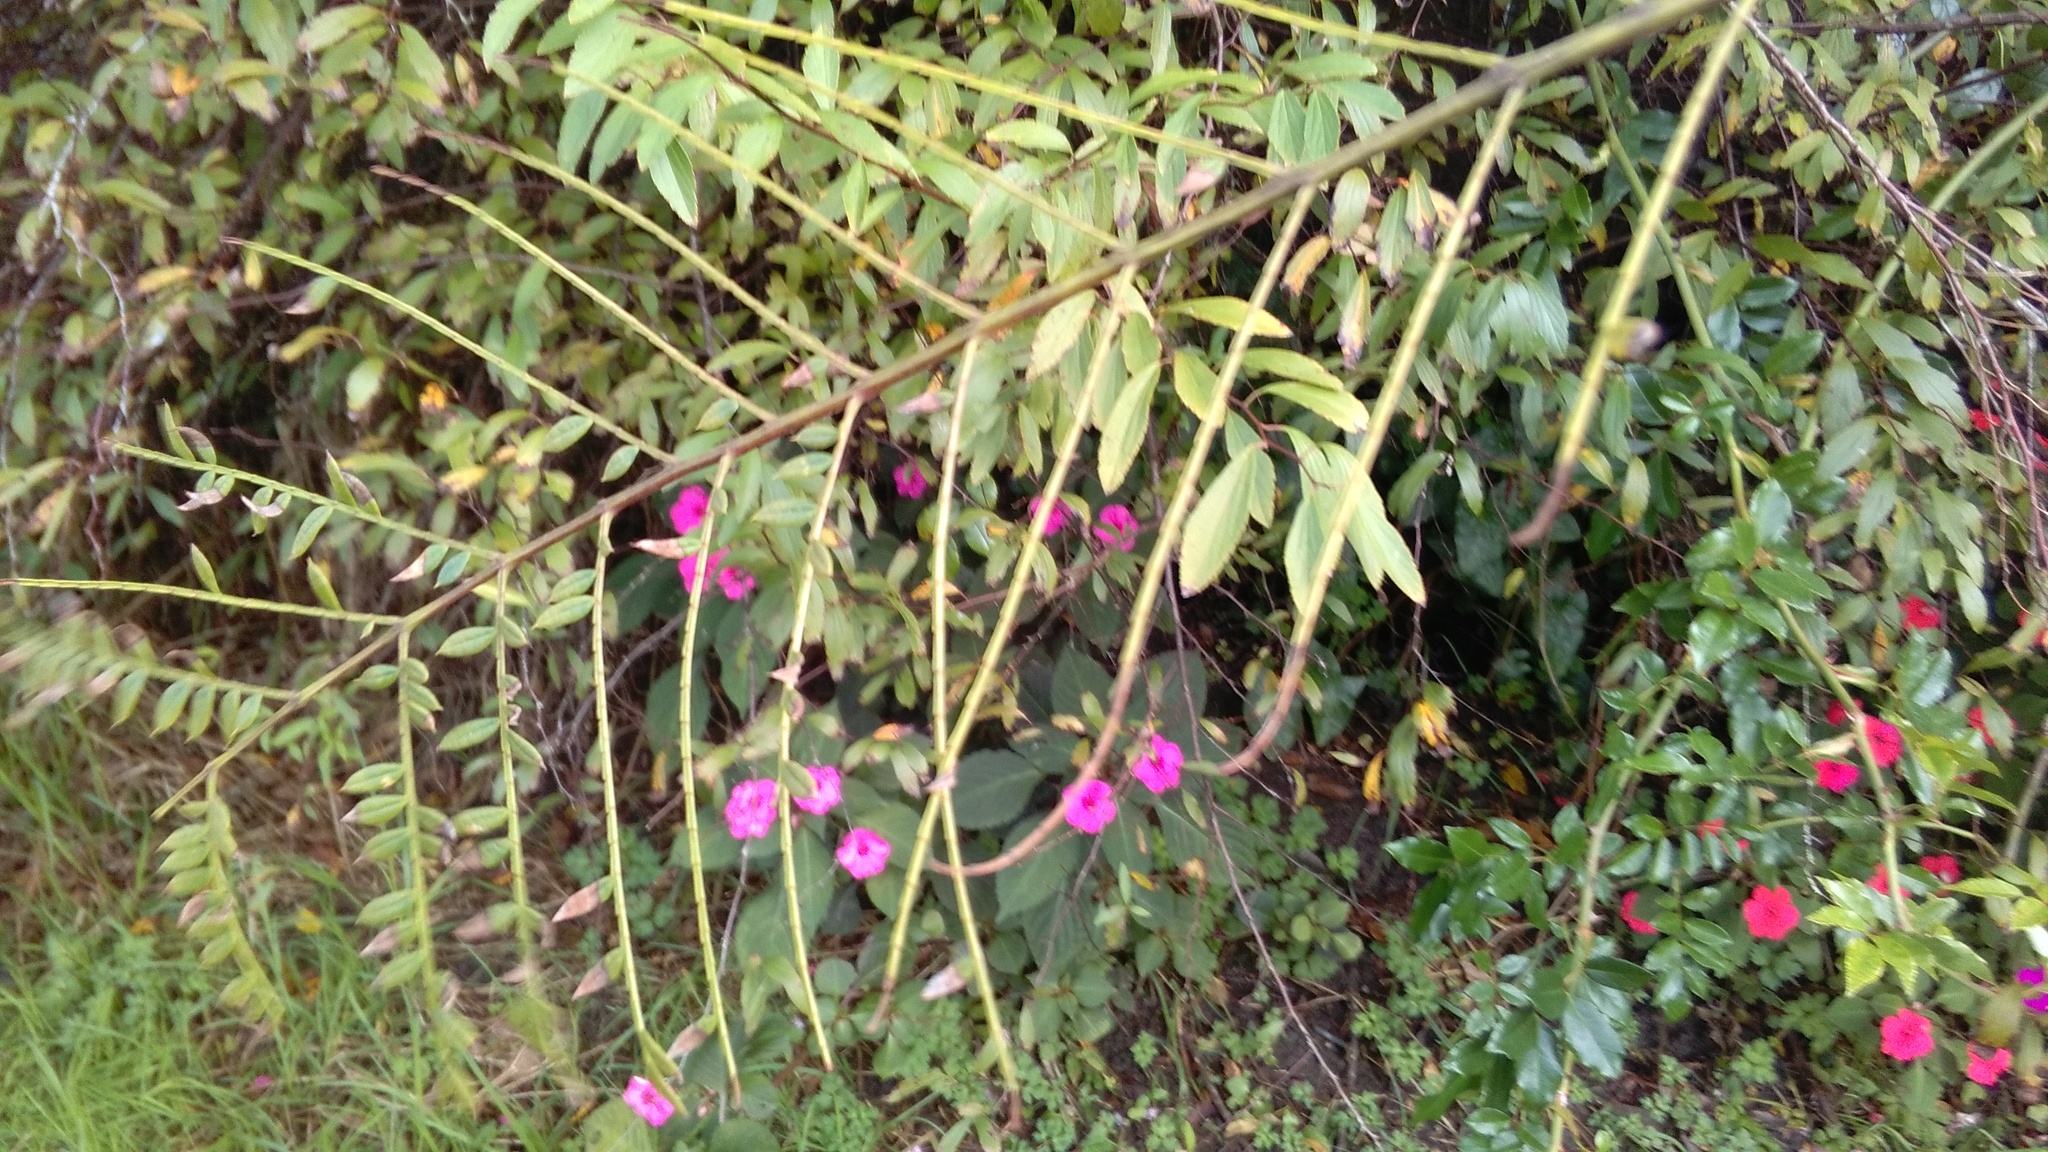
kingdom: Plantae
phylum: Tracheophyta
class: Magnoliopsida
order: Lamiales
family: Bignoniaceae
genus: Jacaranda
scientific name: Jacaranda mimosifolia
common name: Black poui
